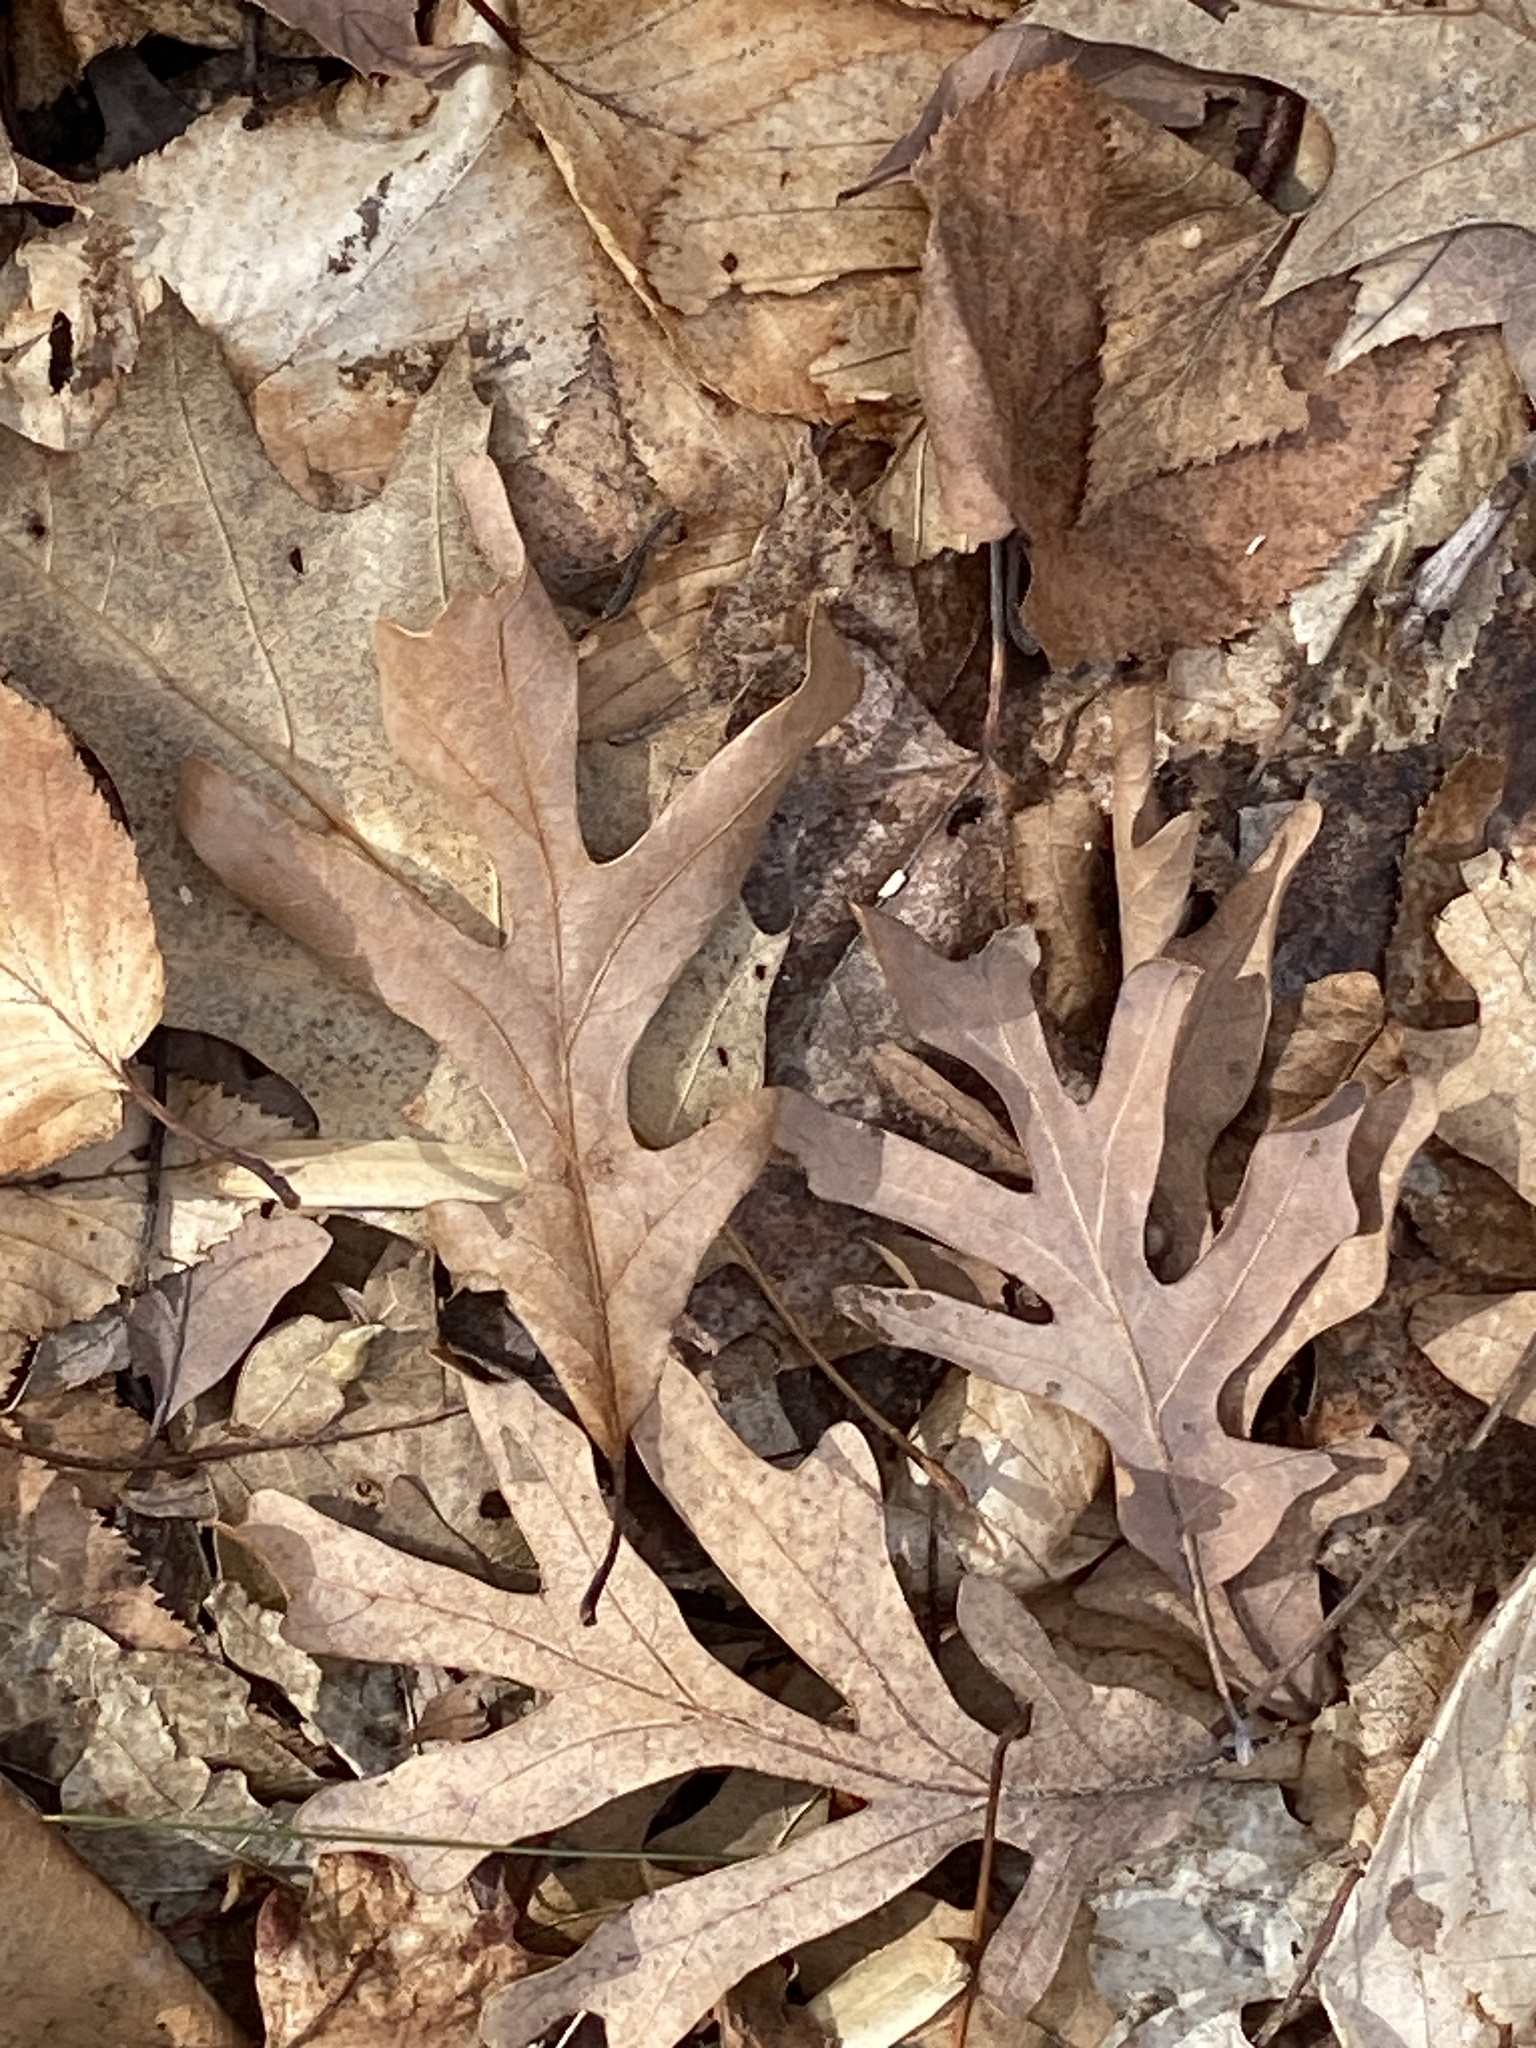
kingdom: Plantae
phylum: Tracheophyta
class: Magnoliopsida
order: Fagales
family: Fagaceae
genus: Quercus
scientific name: Quercus alba
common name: White oak
